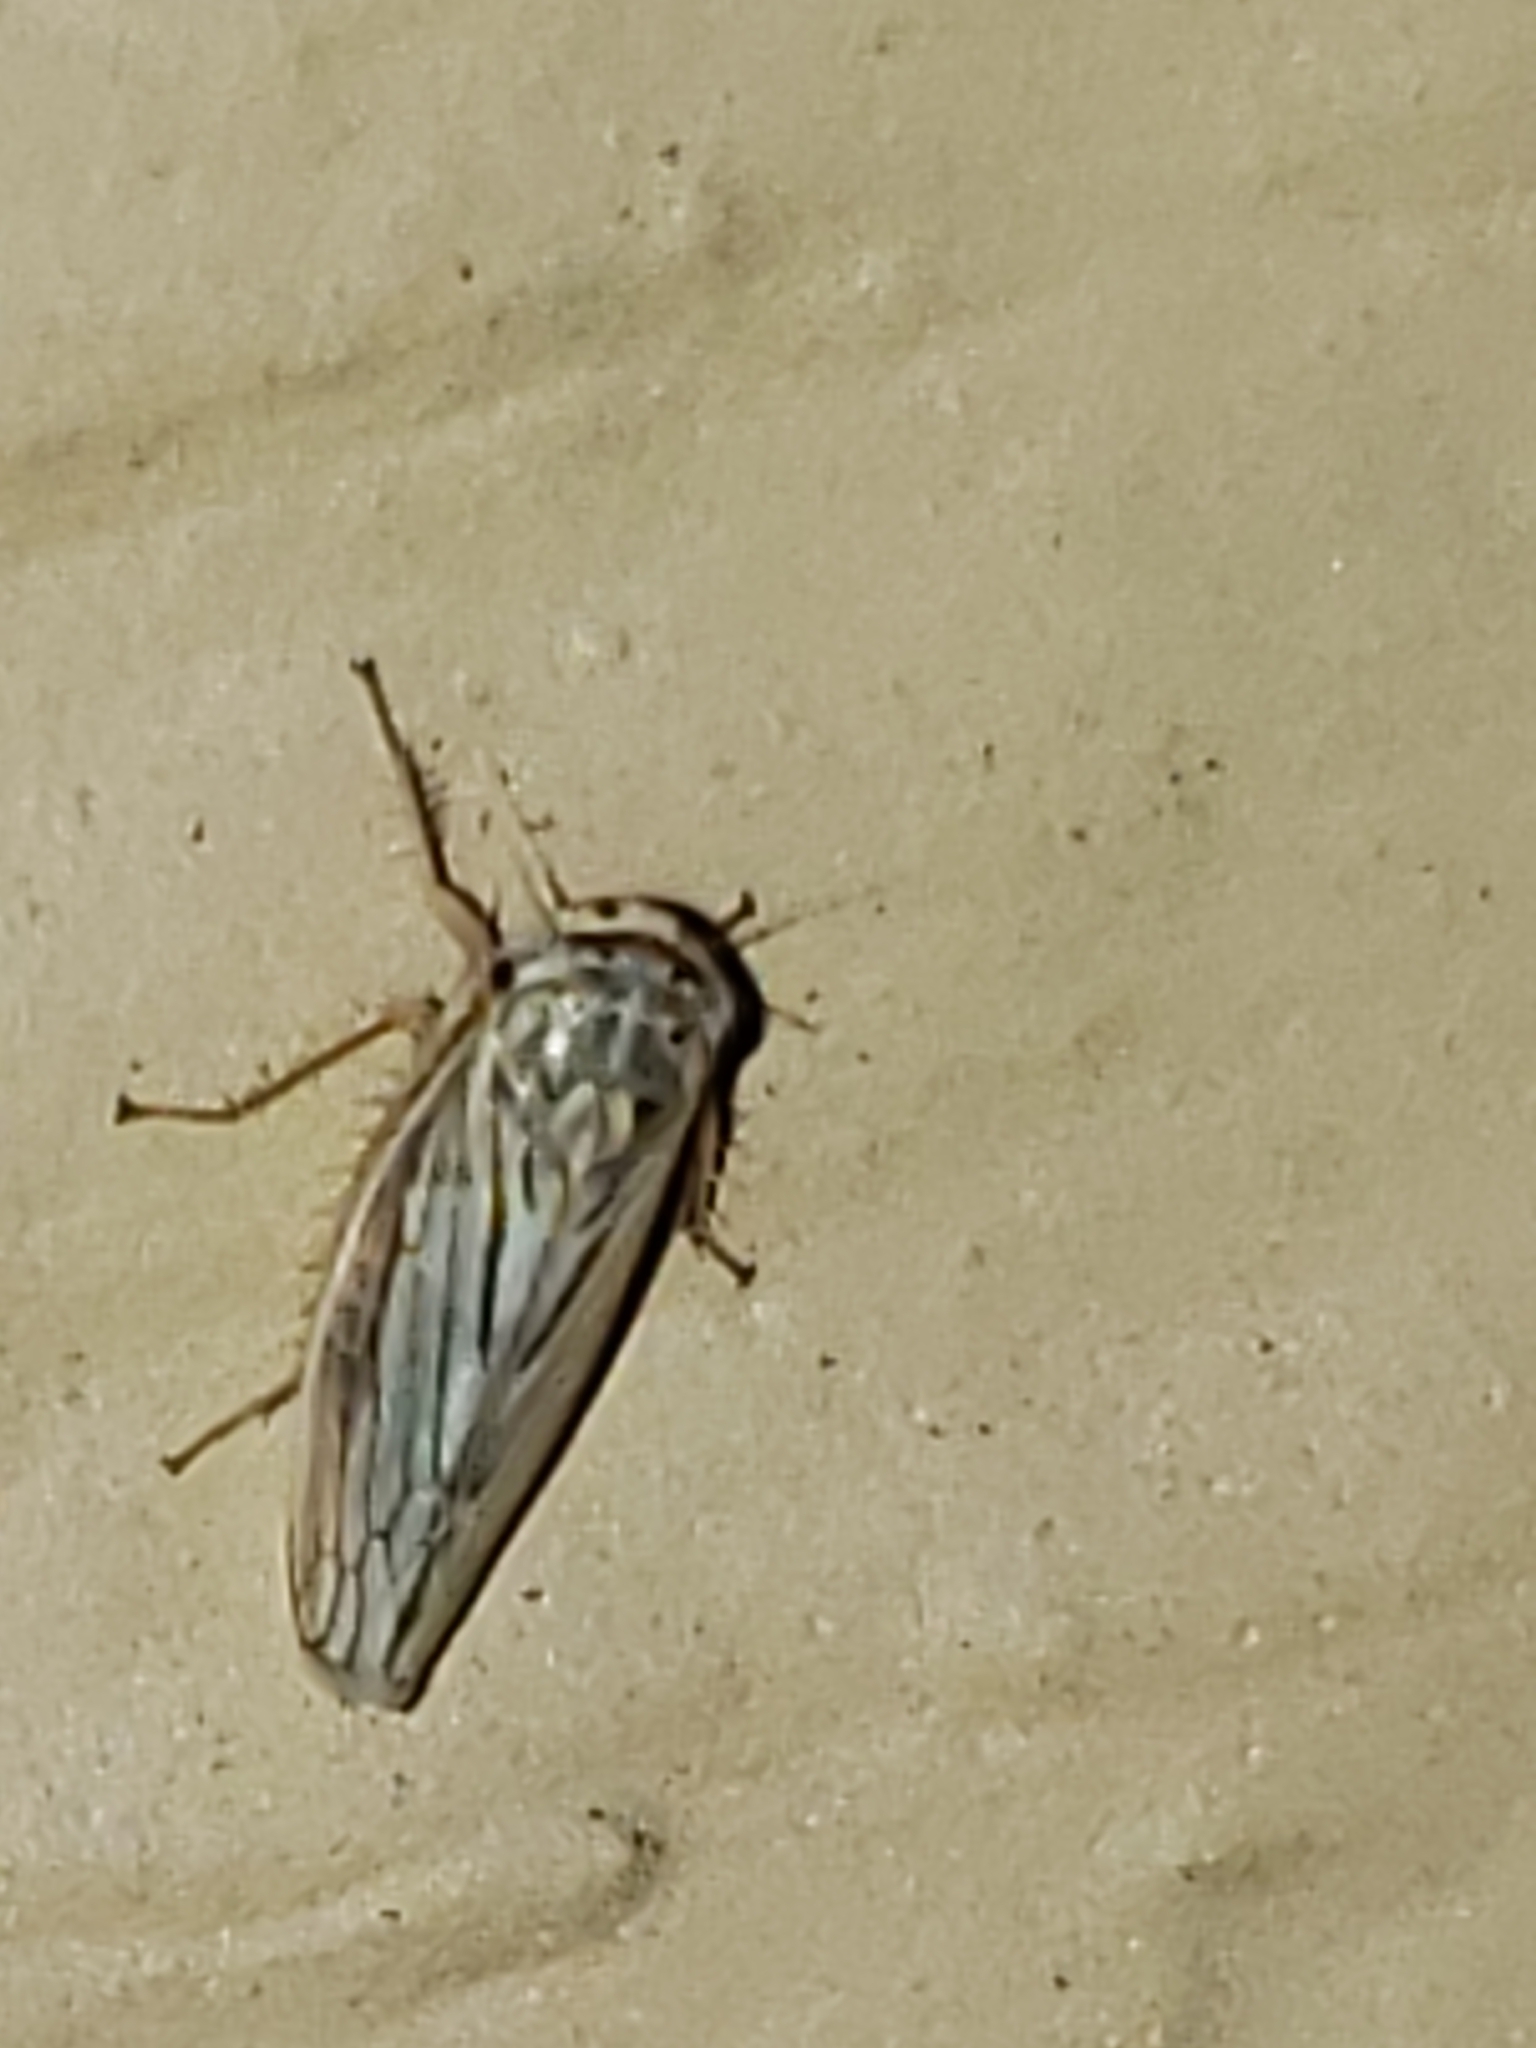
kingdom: Animalia
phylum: Arthropoda
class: Insecta
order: Hemiptera
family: Cicadellidae
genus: Exitianus
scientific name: Exitianus exitiosus
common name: Gray lawn leafhopper
